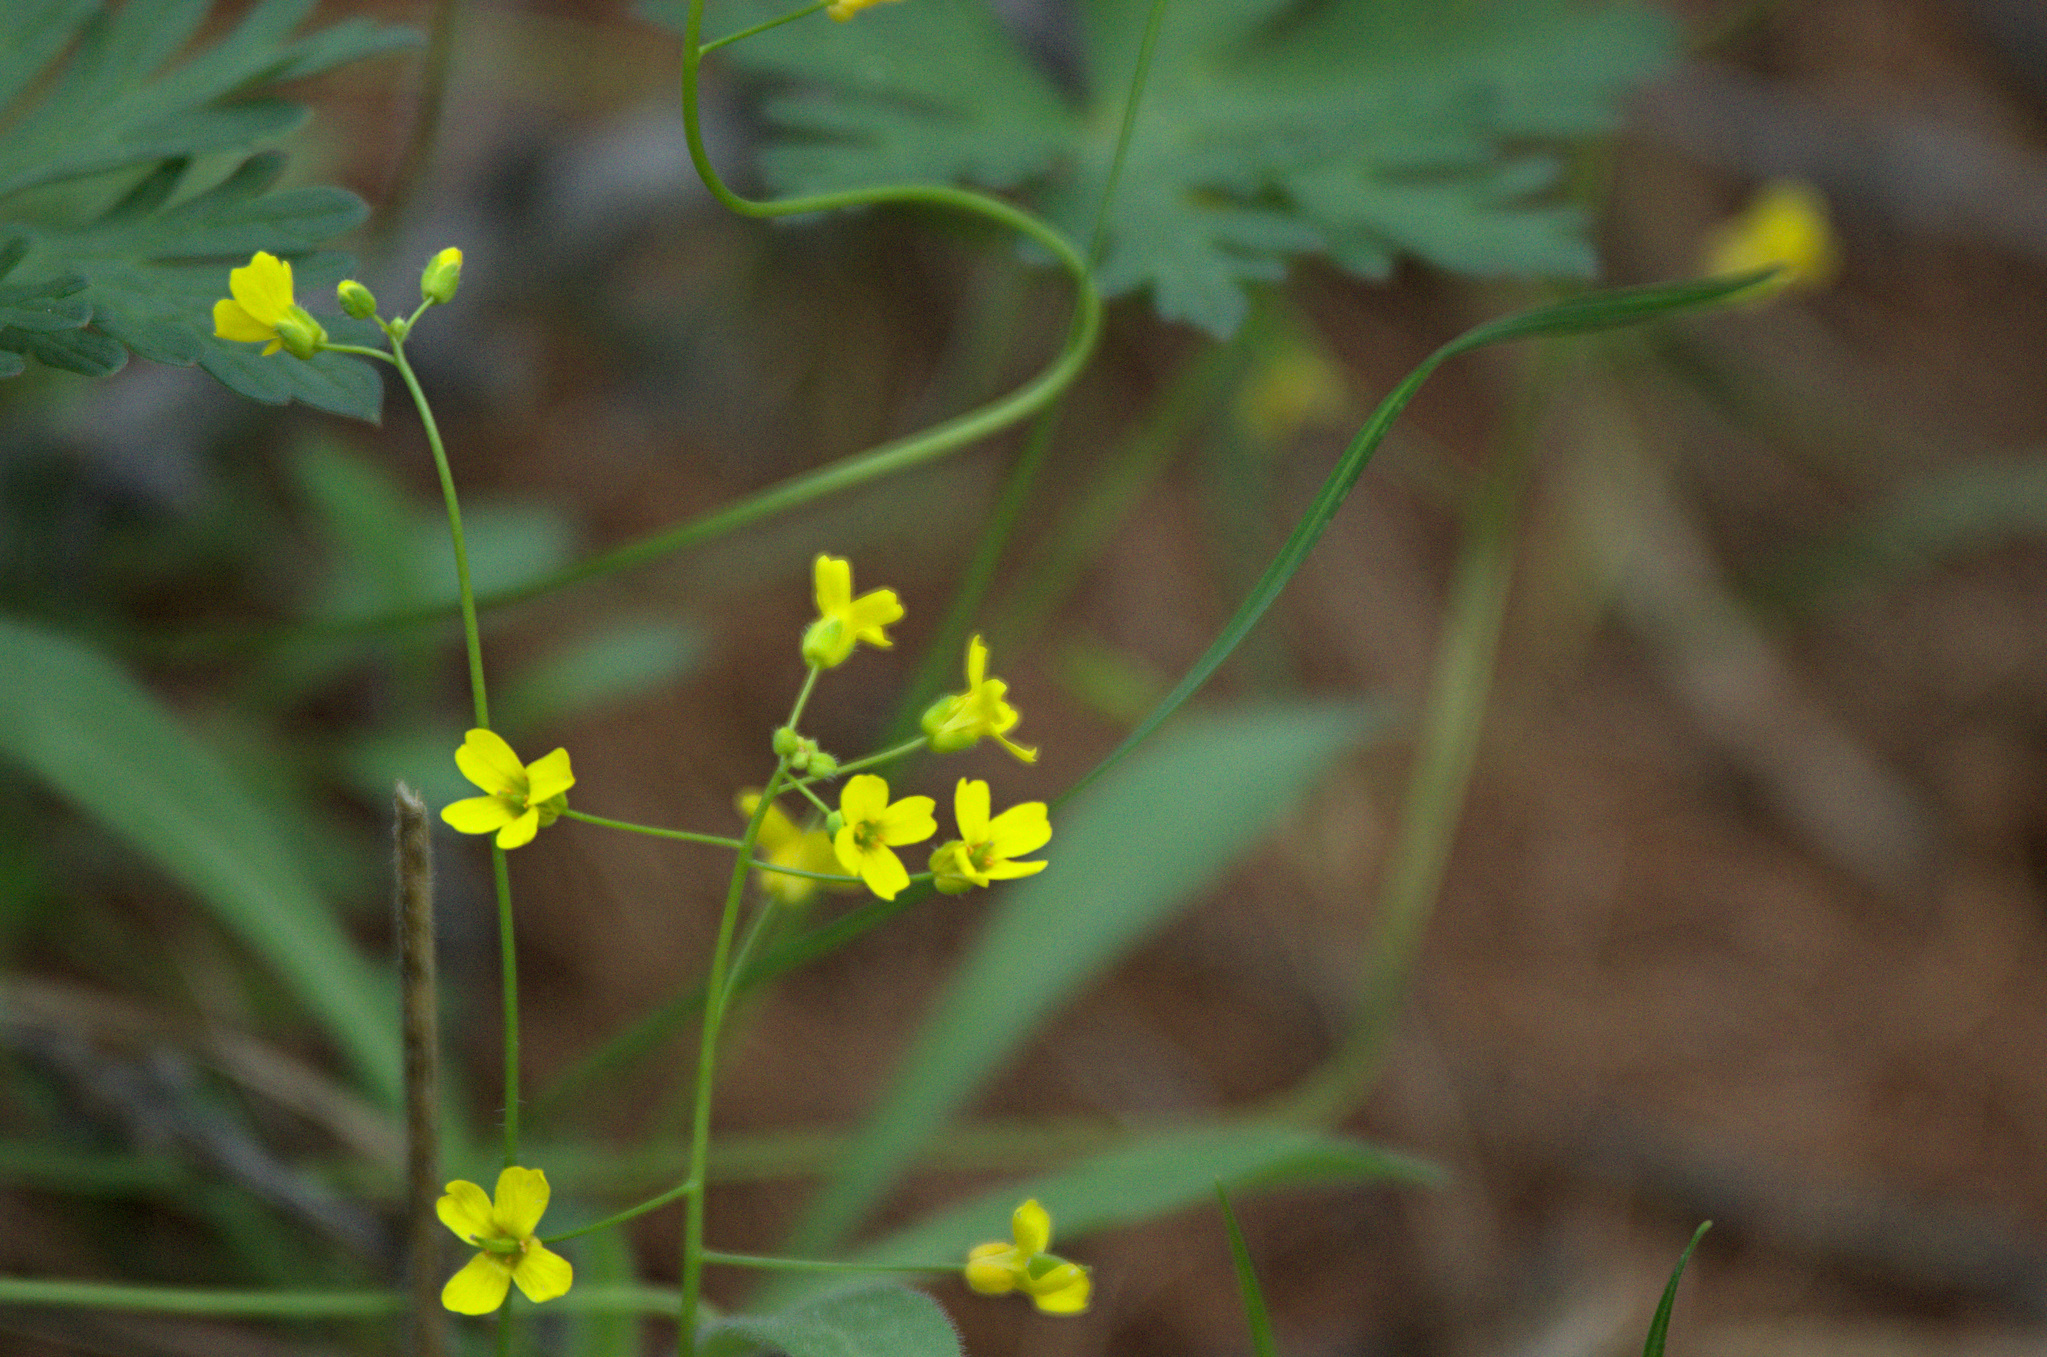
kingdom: Plantae
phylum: Tracheophyta
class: Magnoliopsida
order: Brassicales
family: Brassicaceae
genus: Draba
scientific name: Draba sibirica
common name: Siberian draba
